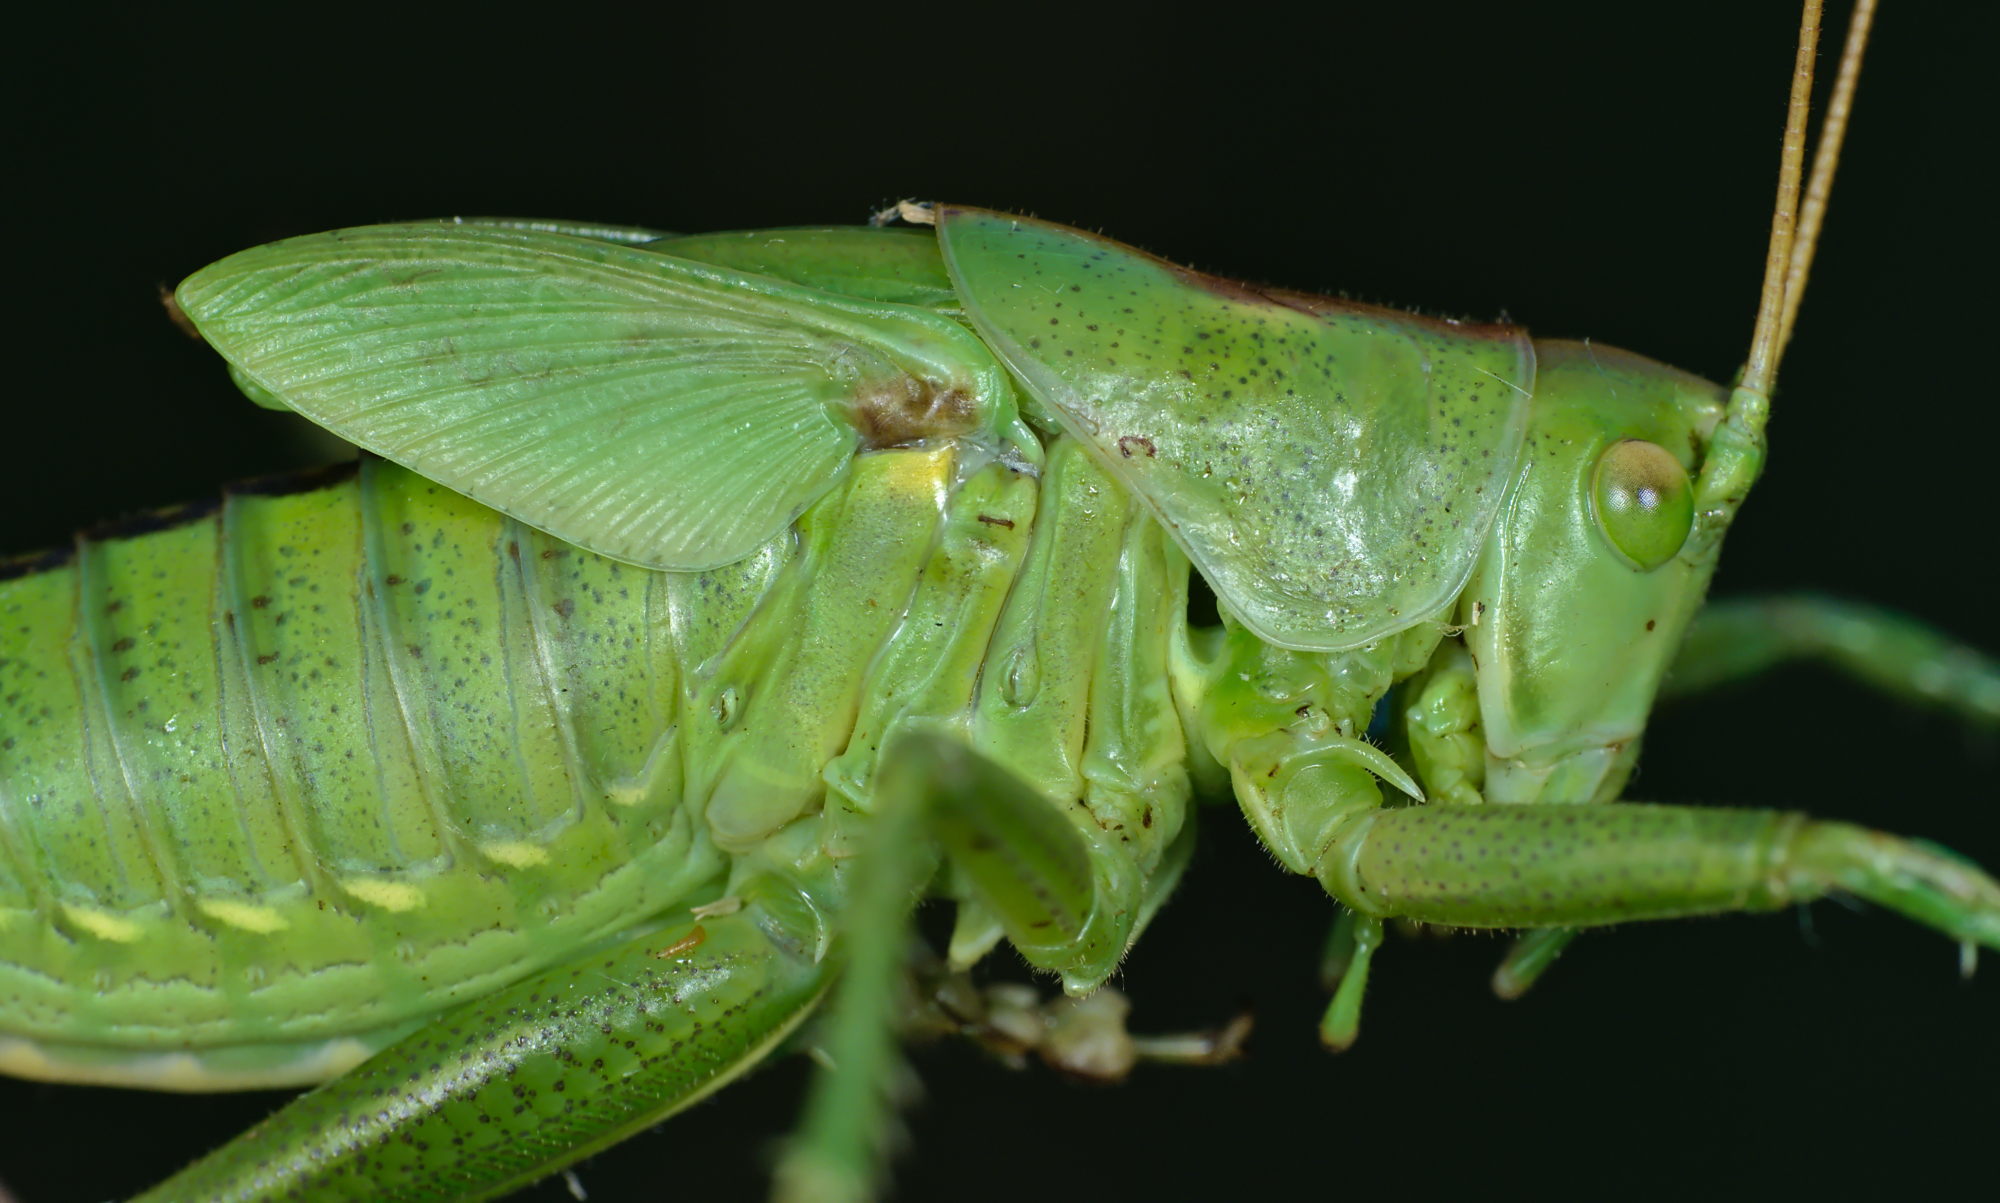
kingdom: Animalia
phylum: Arthropoda
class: Insecta
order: Orthoptera
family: Tettigoniidae
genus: Tettigonia
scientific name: Tettigonia viridissima
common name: Great green bush-cricket
